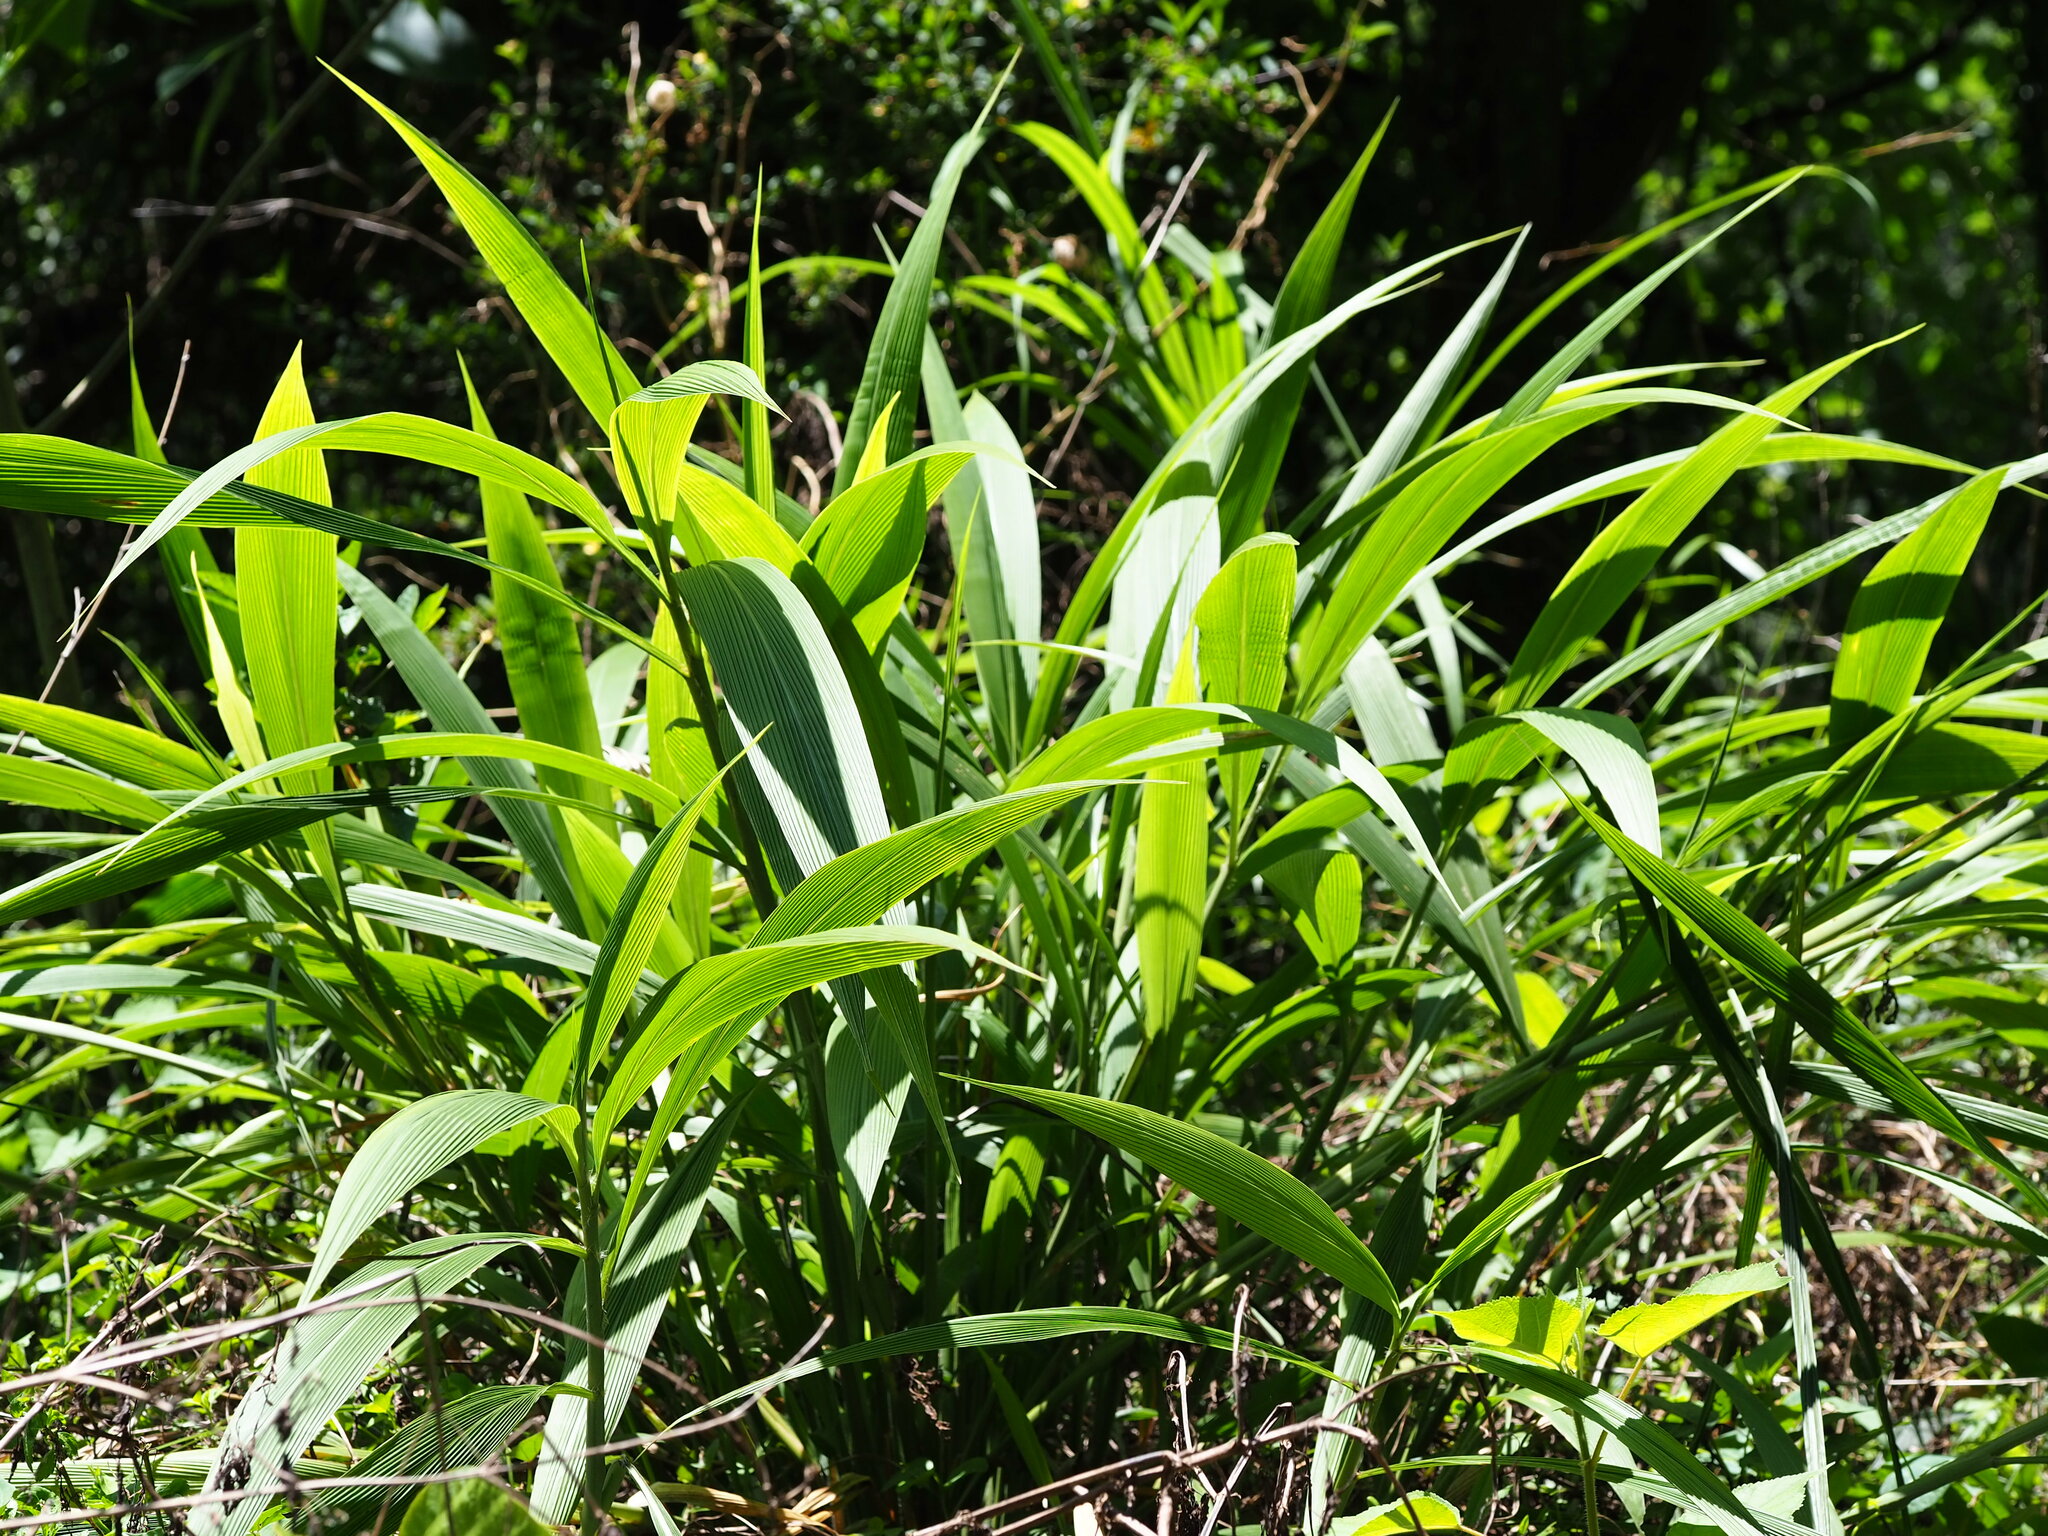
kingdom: Plantae
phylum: Tracheophyta
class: Liliopsida
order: Poales
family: Poaceae
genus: Setaria
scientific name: Setaria palmifolia
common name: Broadleaved bristlegrass
